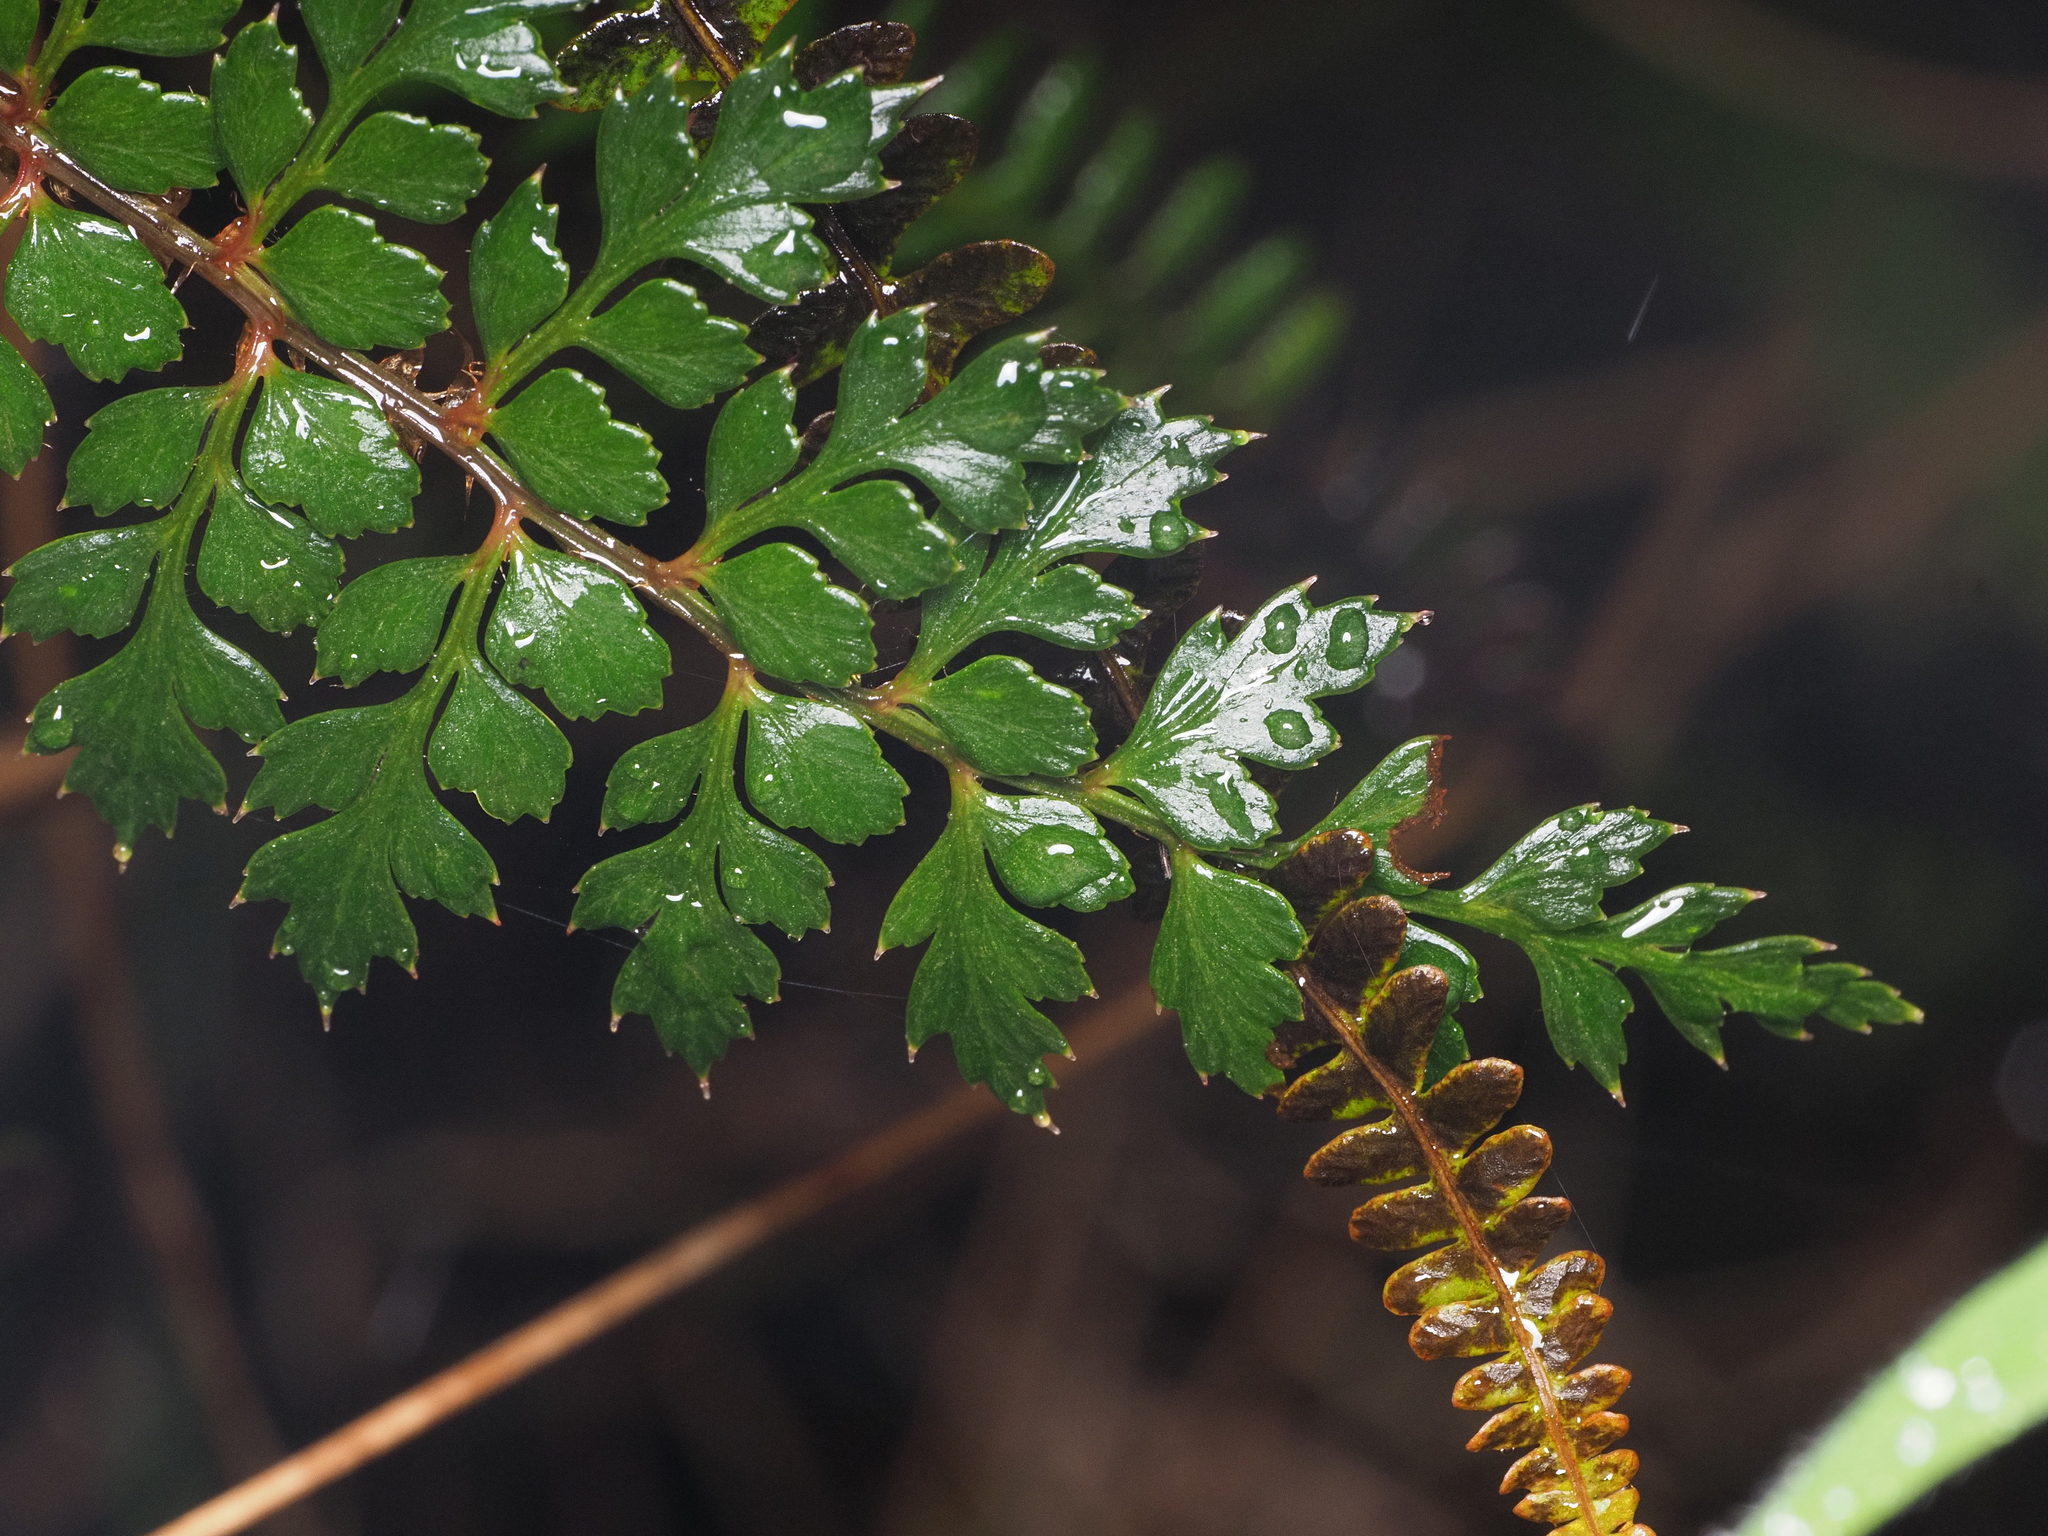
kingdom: Plantae
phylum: Tracheophyta
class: Polypodiopsida
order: Polypodiales
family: Dryopteridaceae
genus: Polystichum
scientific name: Polystichum vestitum
